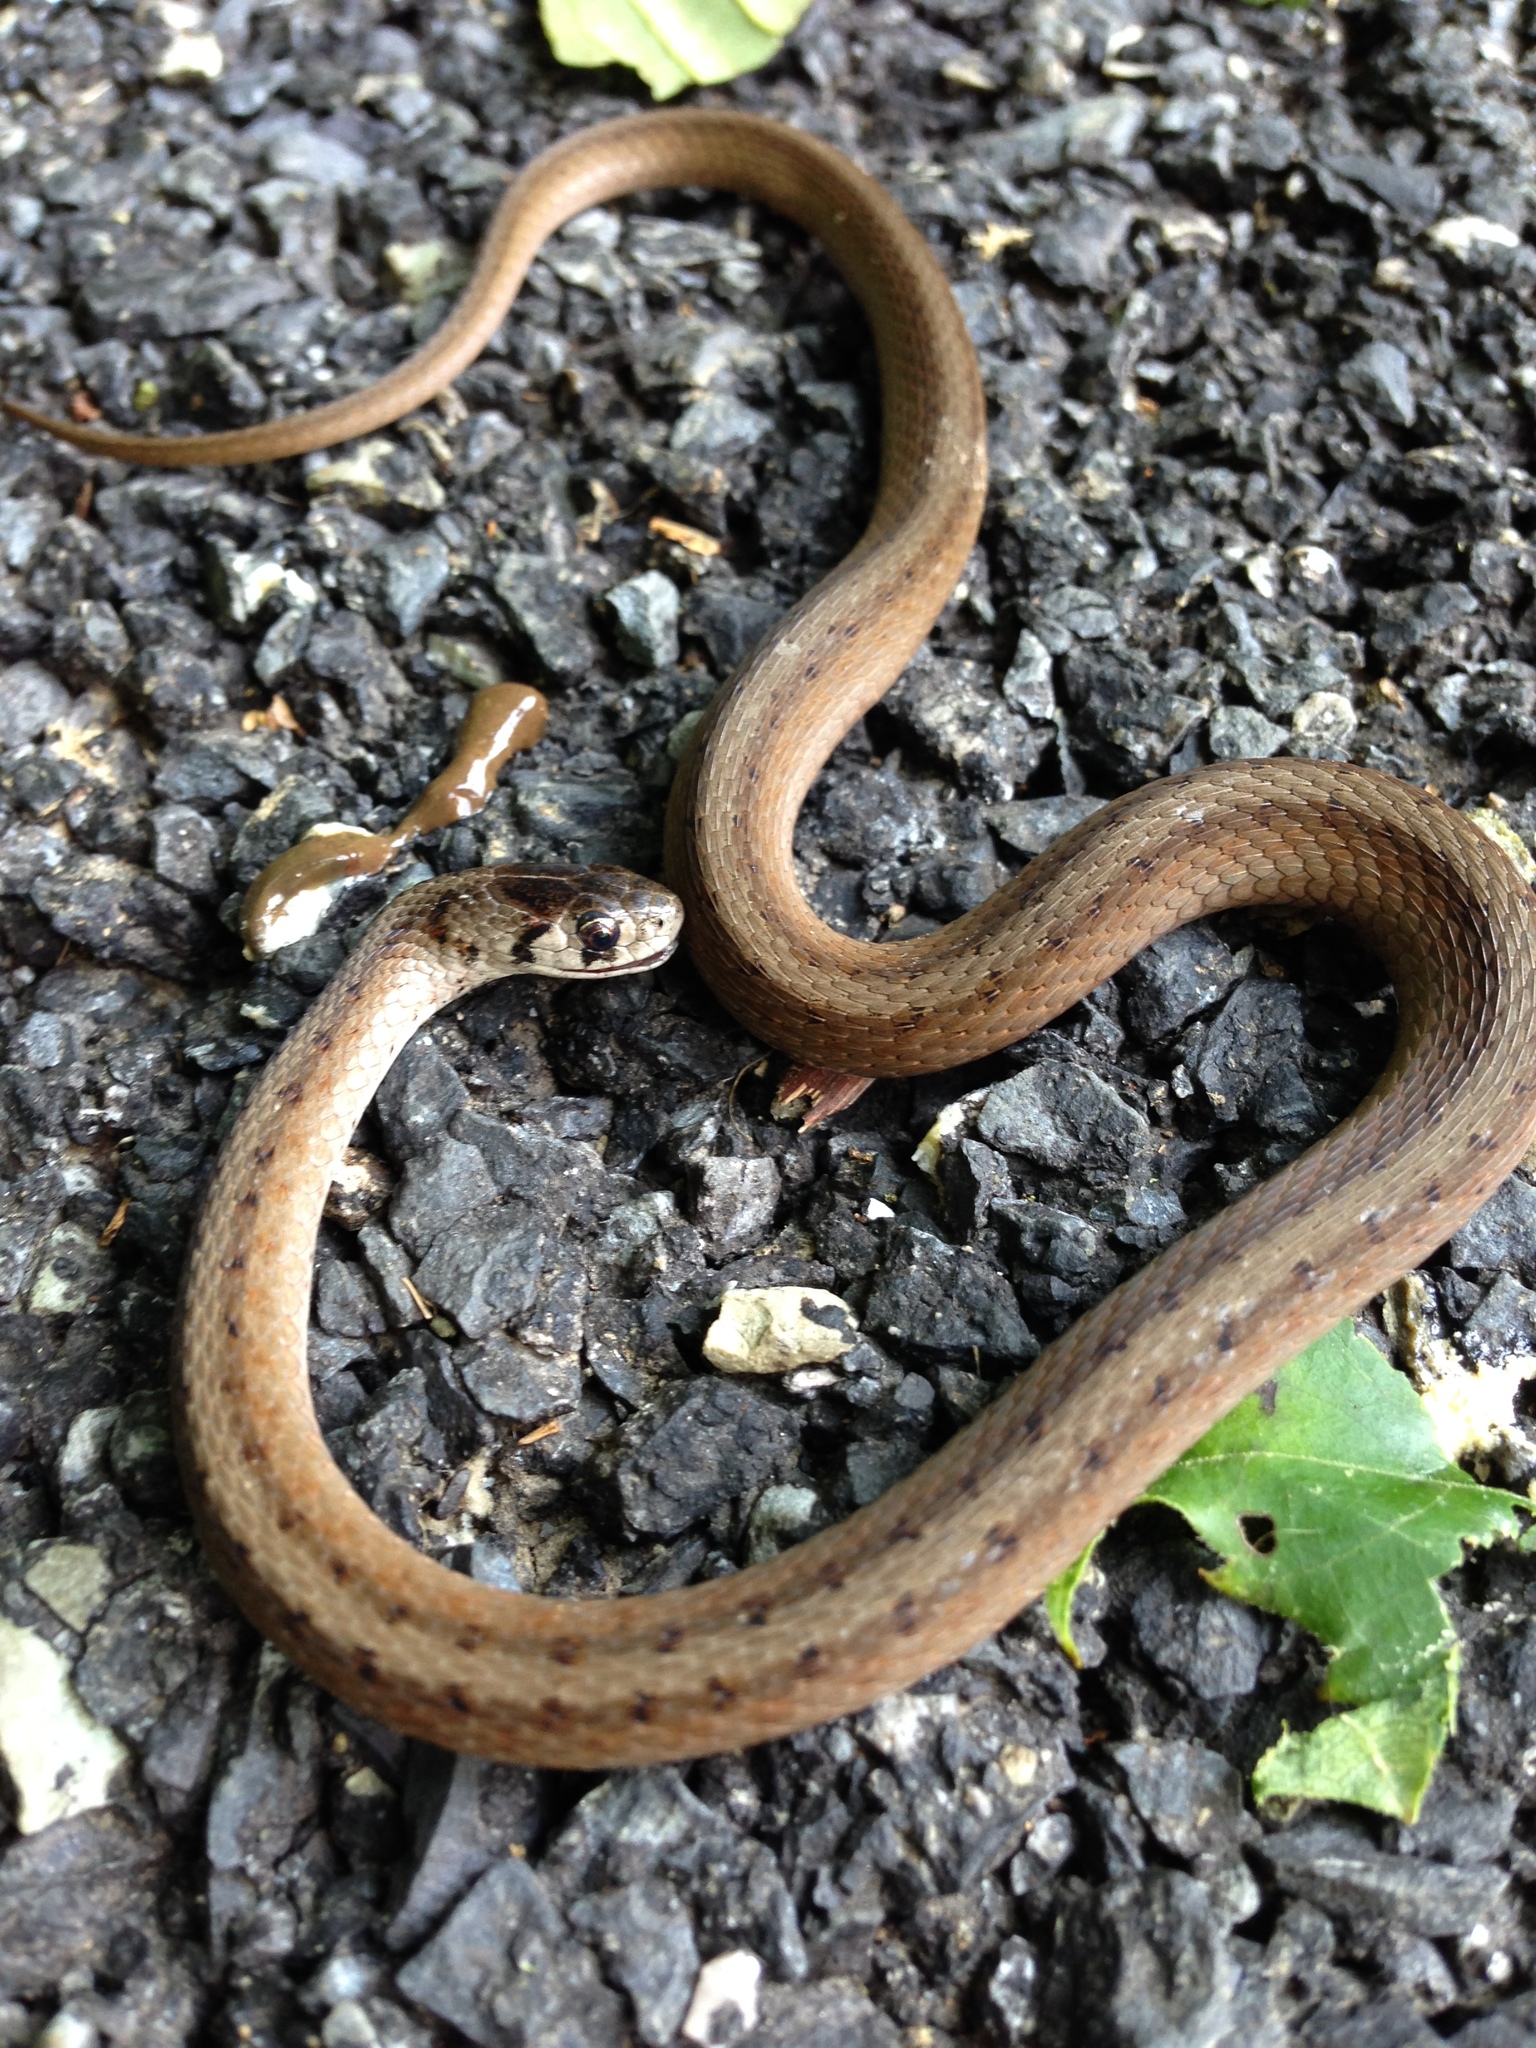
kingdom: Animalia
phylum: Chordata
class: Squamata
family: Colubridae
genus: Storeria
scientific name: Storeria dekayi
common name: (dekay’s) brown snake
